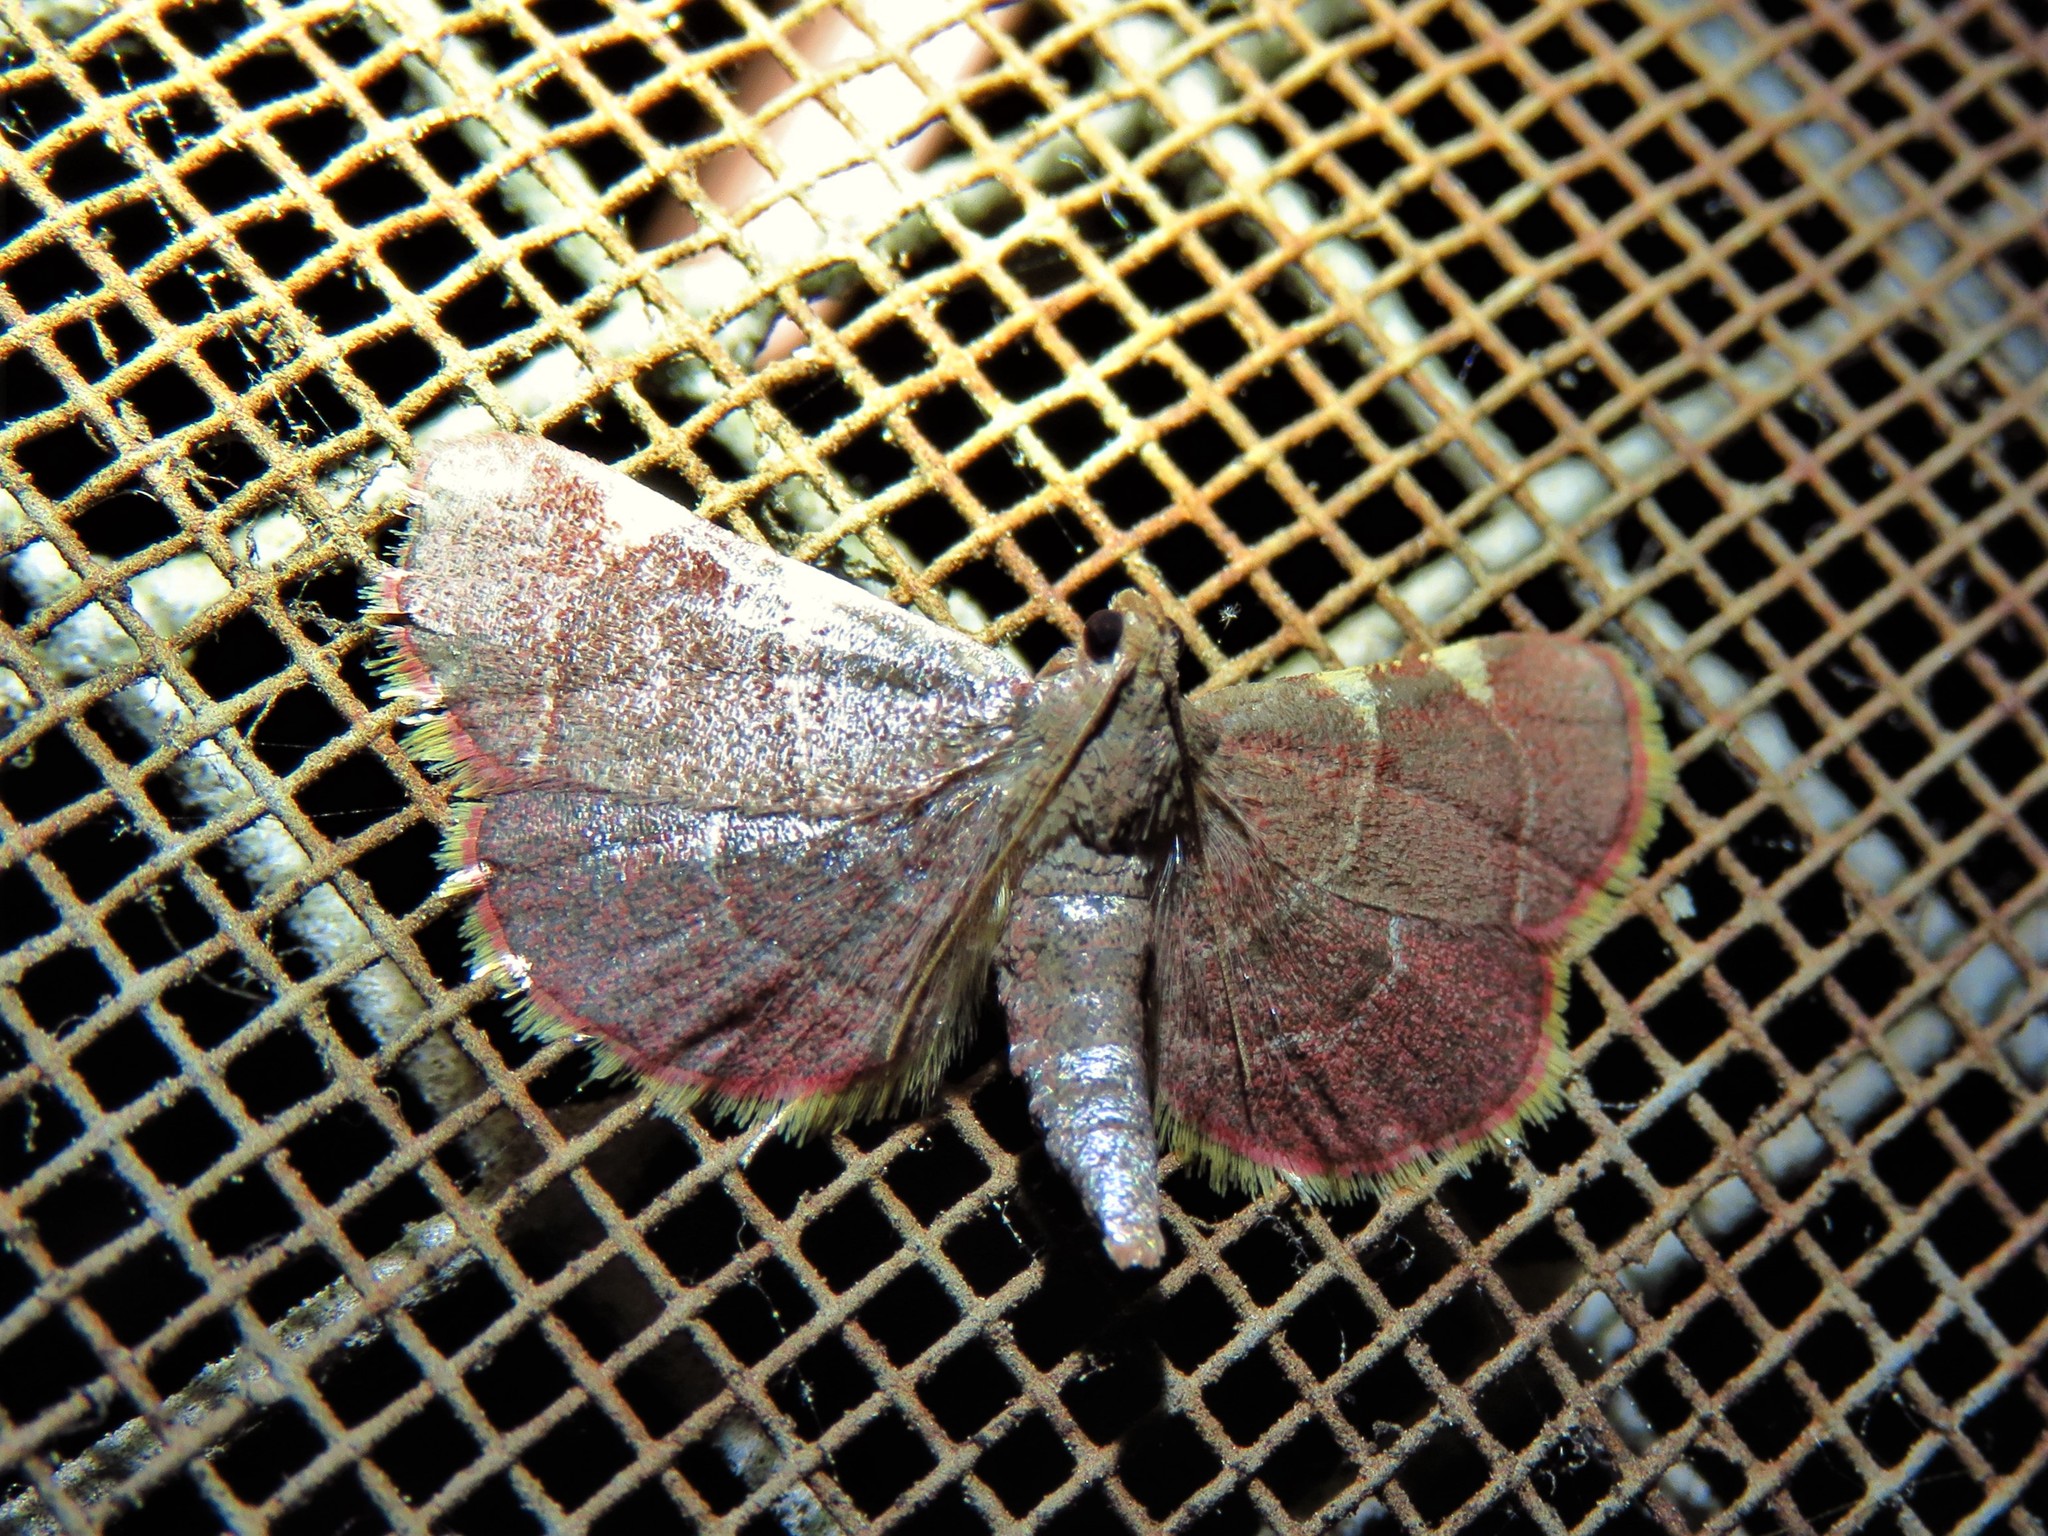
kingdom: Animalia
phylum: Arthropoda
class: Insecta
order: Lepidoptera
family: Pyralidae
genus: Hypsopygia
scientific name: Hypsopygia olinalis
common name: Yellow-fringed dolichomia moth
